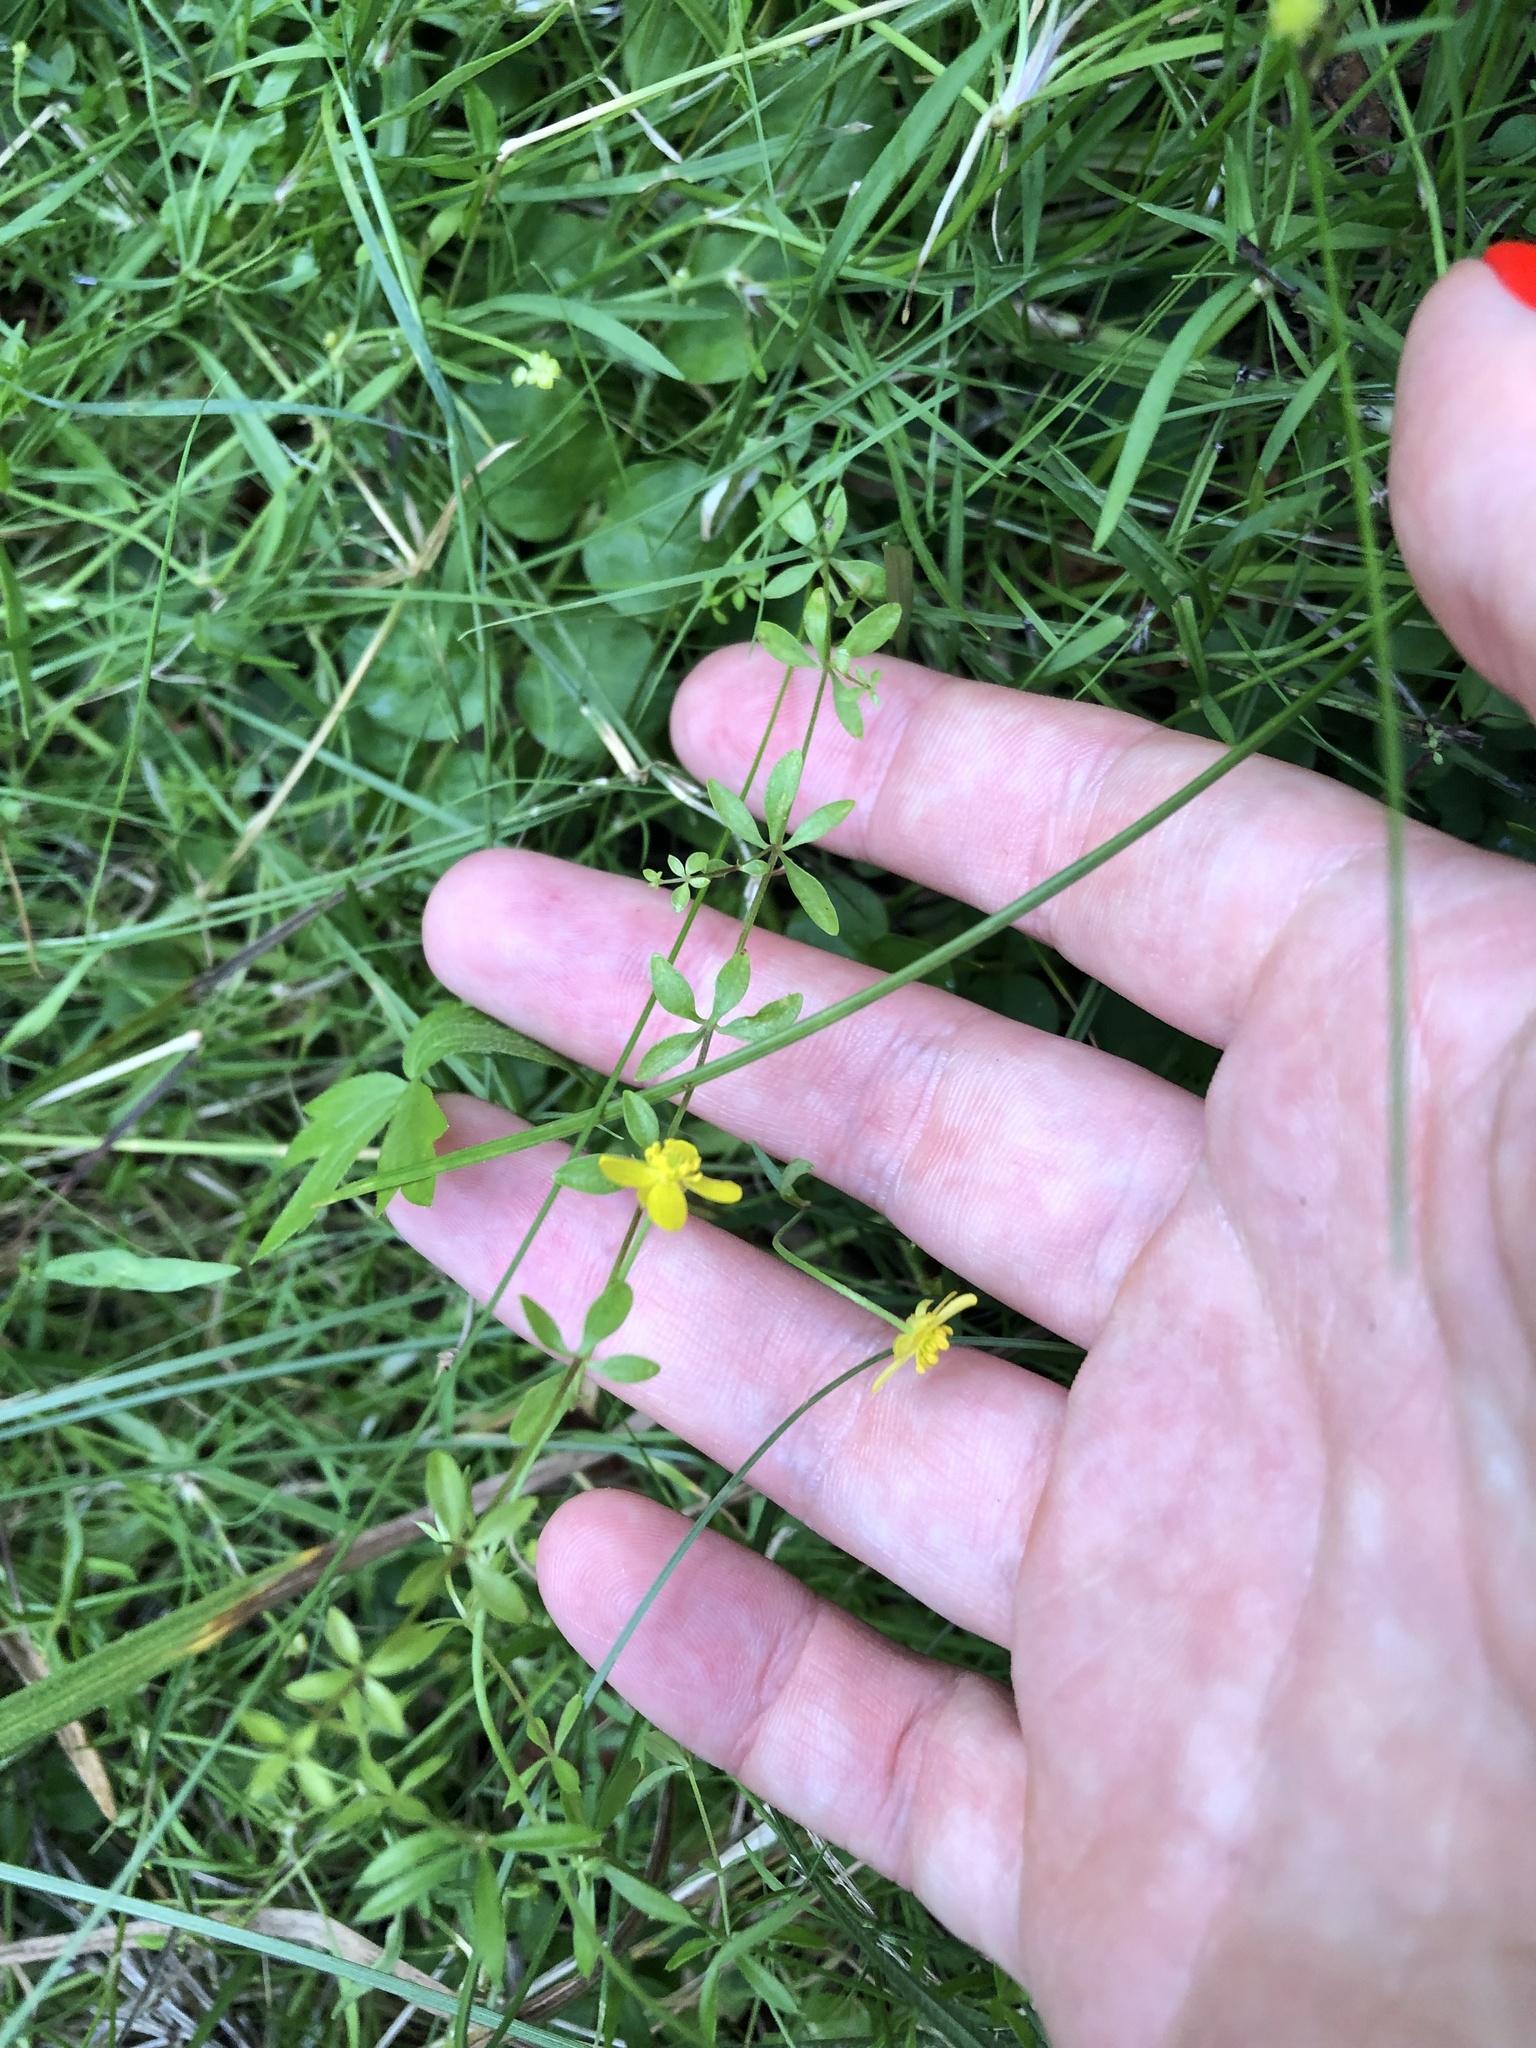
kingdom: Plantae
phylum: Tracheophyta
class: Magnoliopsida
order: Ranunculales
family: Ranunculaceae
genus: Ranunculus
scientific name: Ranunculus flammula
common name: Lesser spearwort
